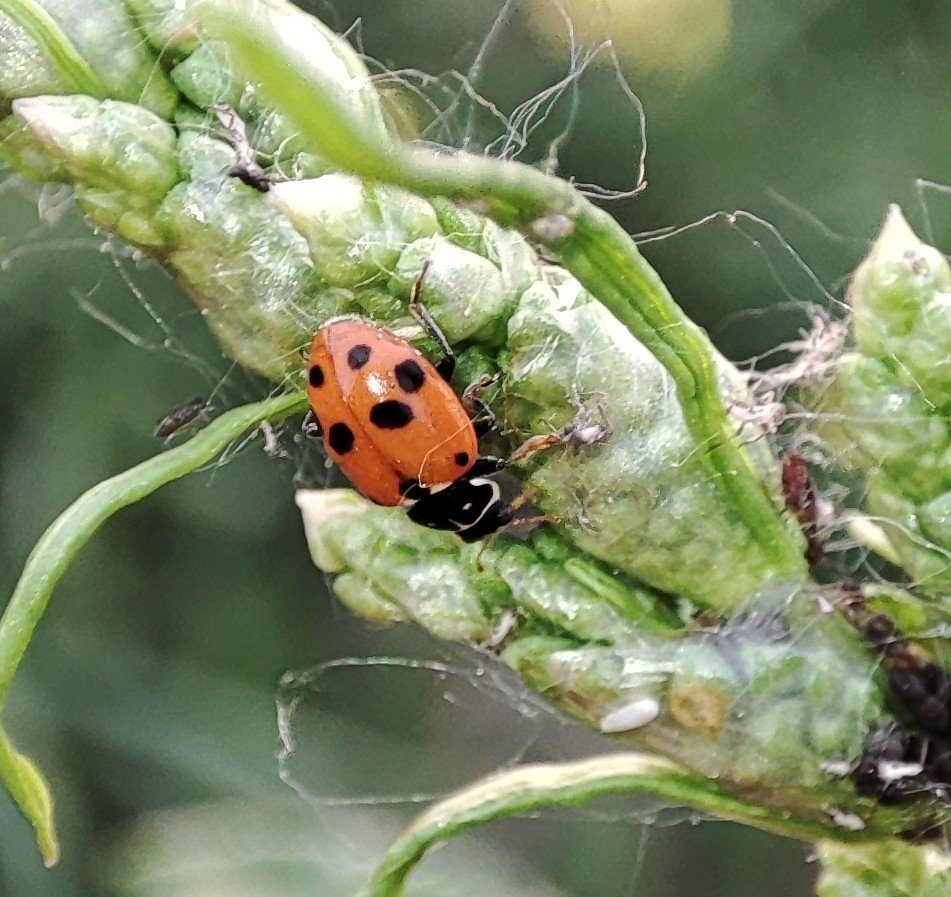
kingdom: Animalia
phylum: Arthropoda
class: Insecta
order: Coleoptera
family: Coccinellidae
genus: Hippodamia
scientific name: Hippodamia variegata
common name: Ladybird beetle
